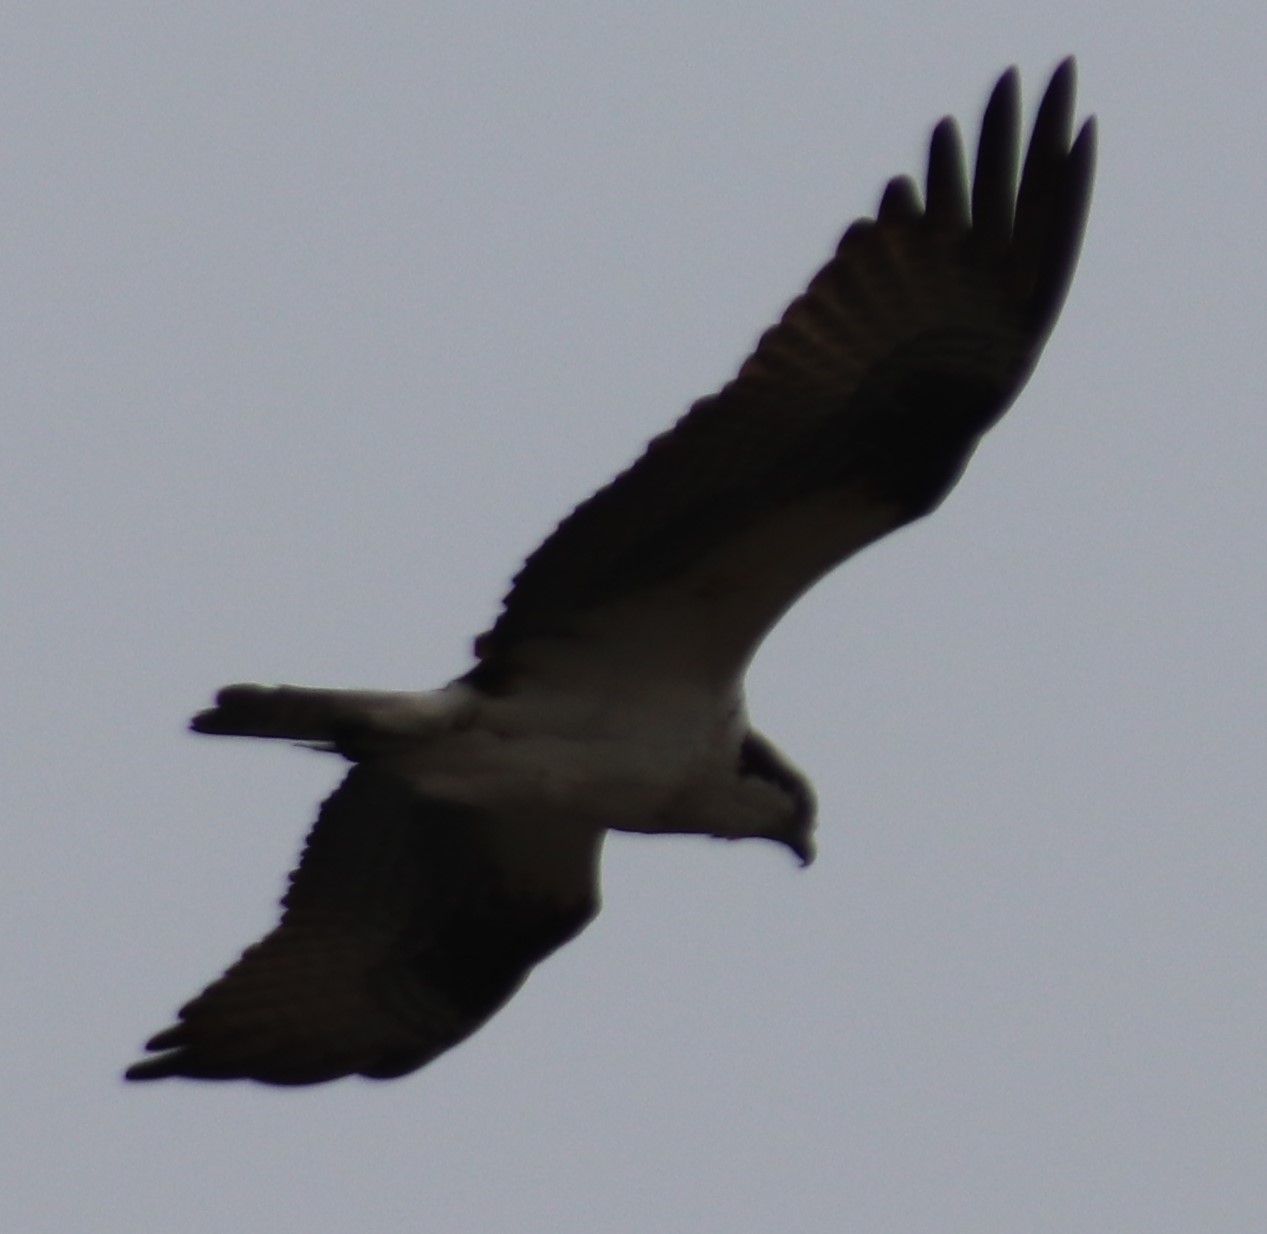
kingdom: Animalia
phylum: Chordata
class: Aves
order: Accipitriformes
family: Pandionidae
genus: Pandion
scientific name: Pandion haliaetus
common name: Osprey
